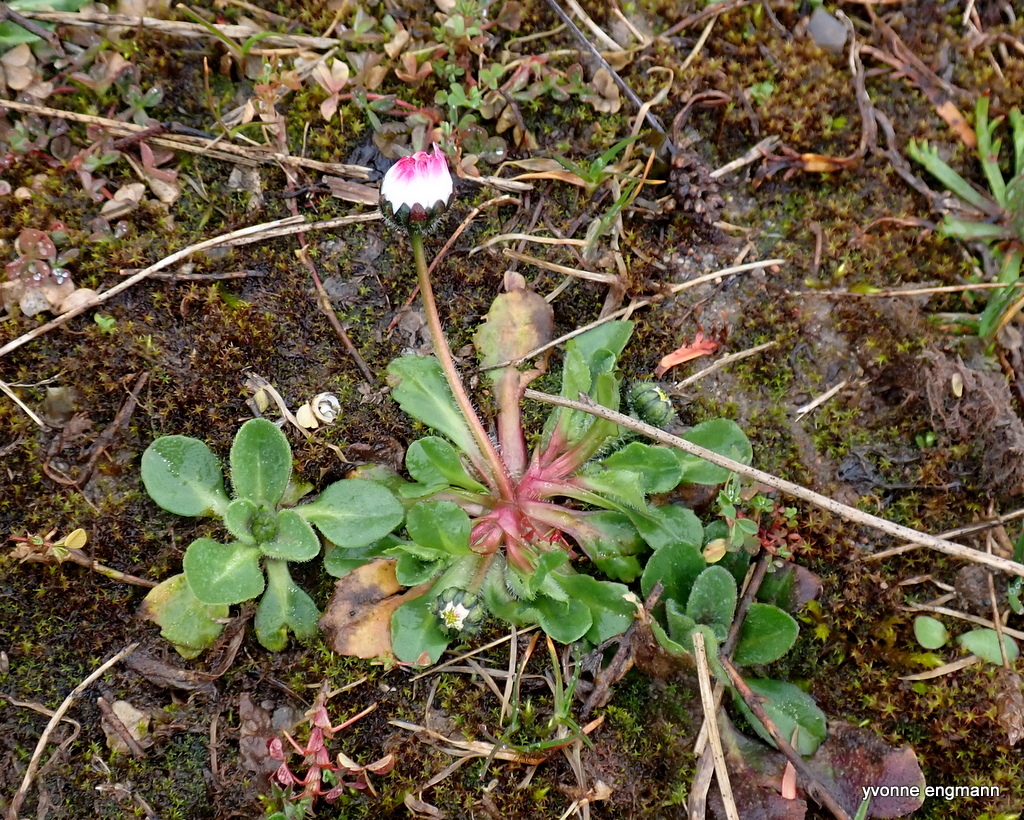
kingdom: Plantae
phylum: Tracheophyta
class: Magnoliopsida
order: Asterales
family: Asteraceae
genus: Bellis
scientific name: Bellis perennis
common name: Lawndaisy
